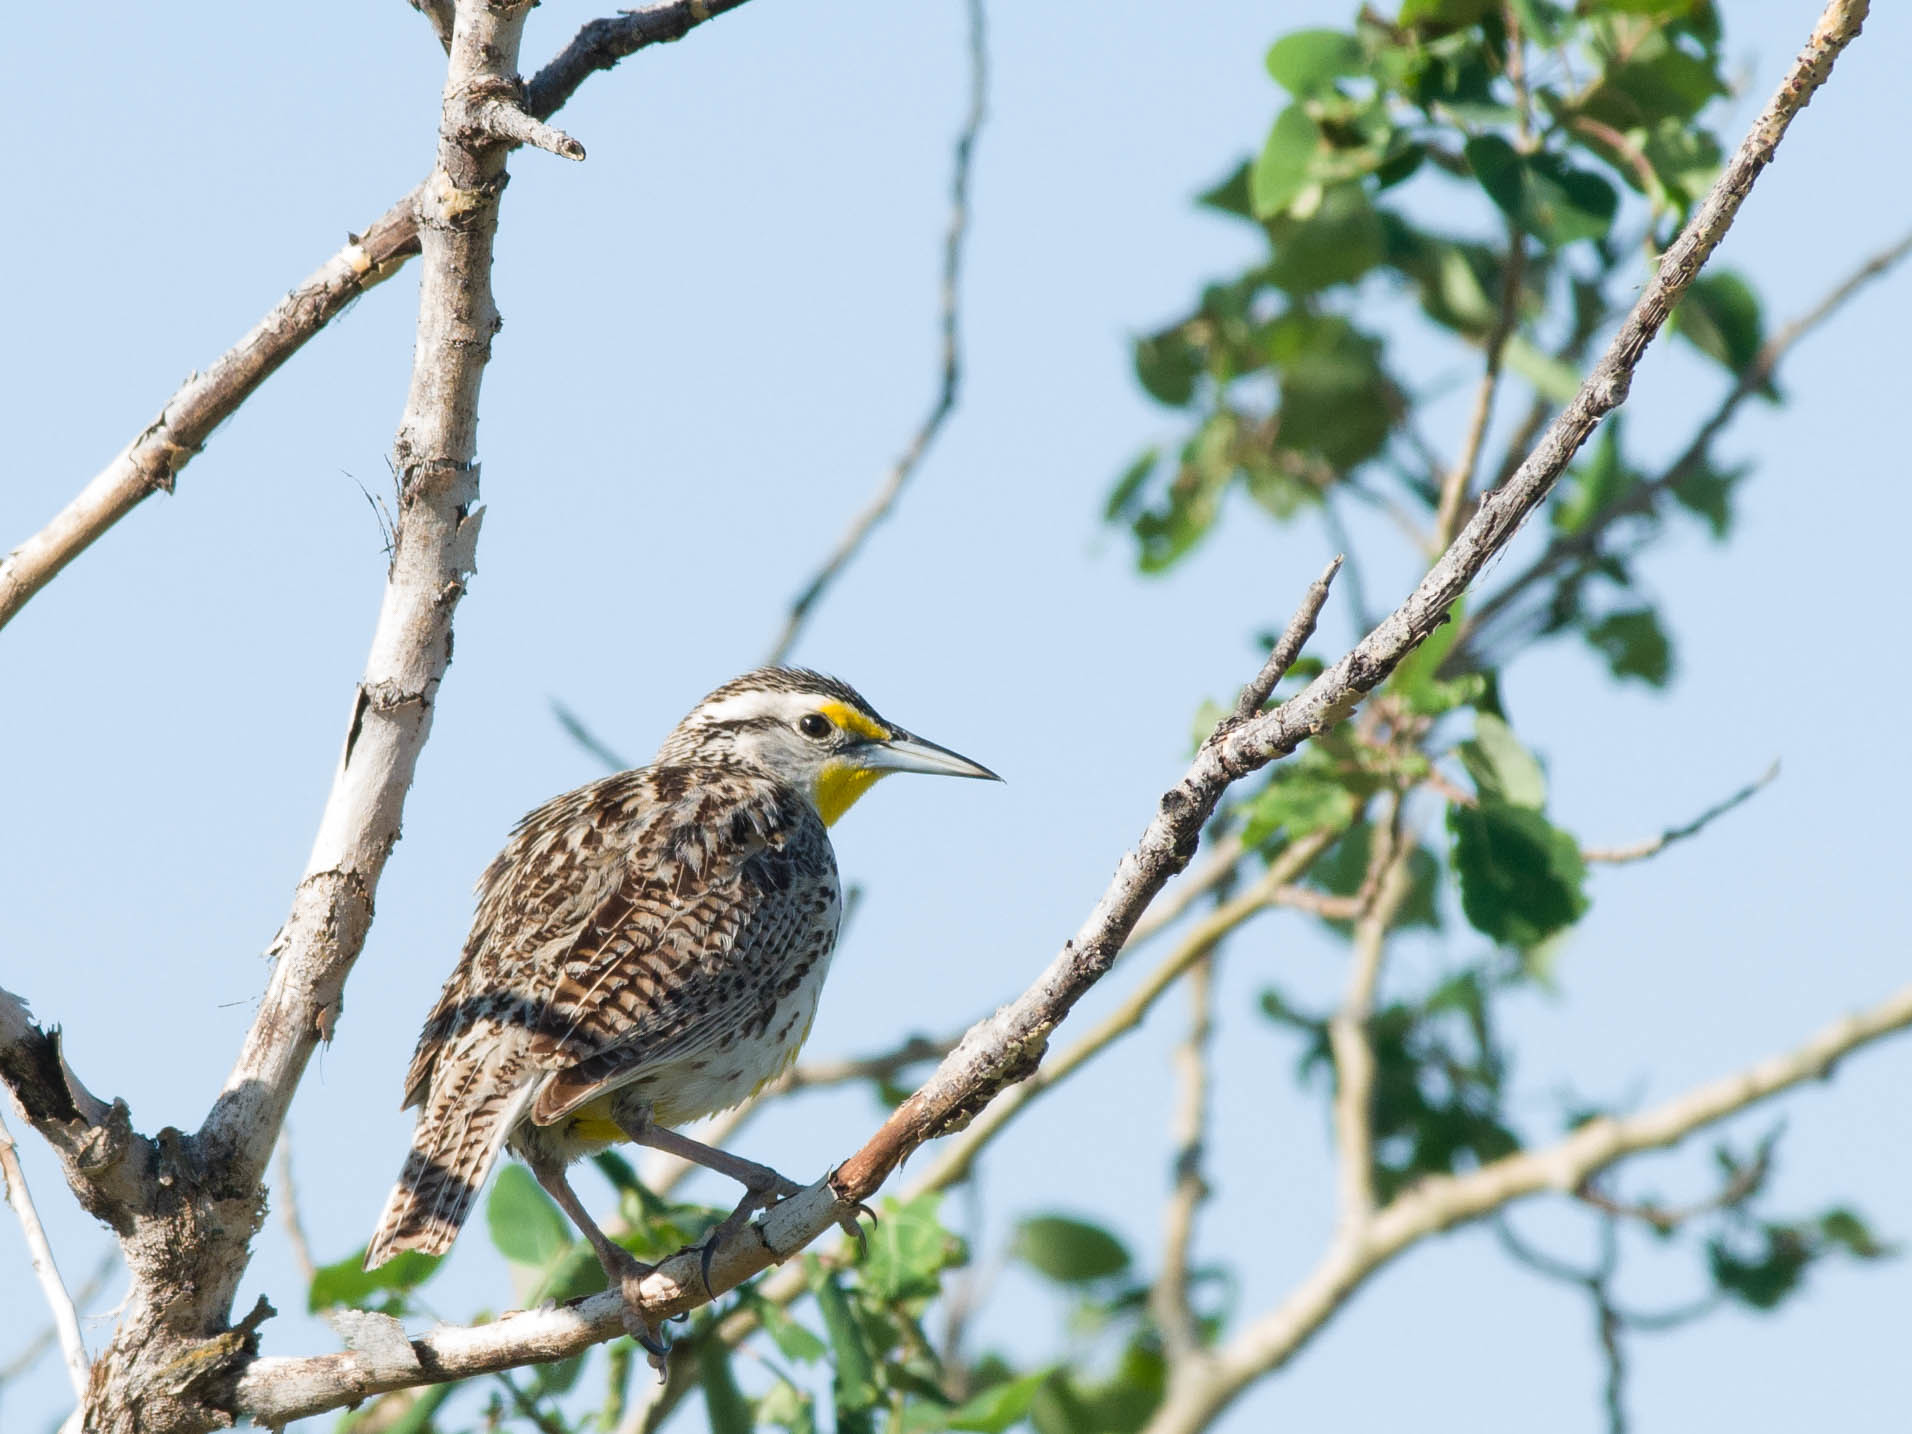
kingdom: Animalia
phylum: Chordata
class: Aves
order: Passeriformes
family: Icteridae
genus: Sturnella
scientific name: Sturnella neglecta
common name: Western meadowlark
